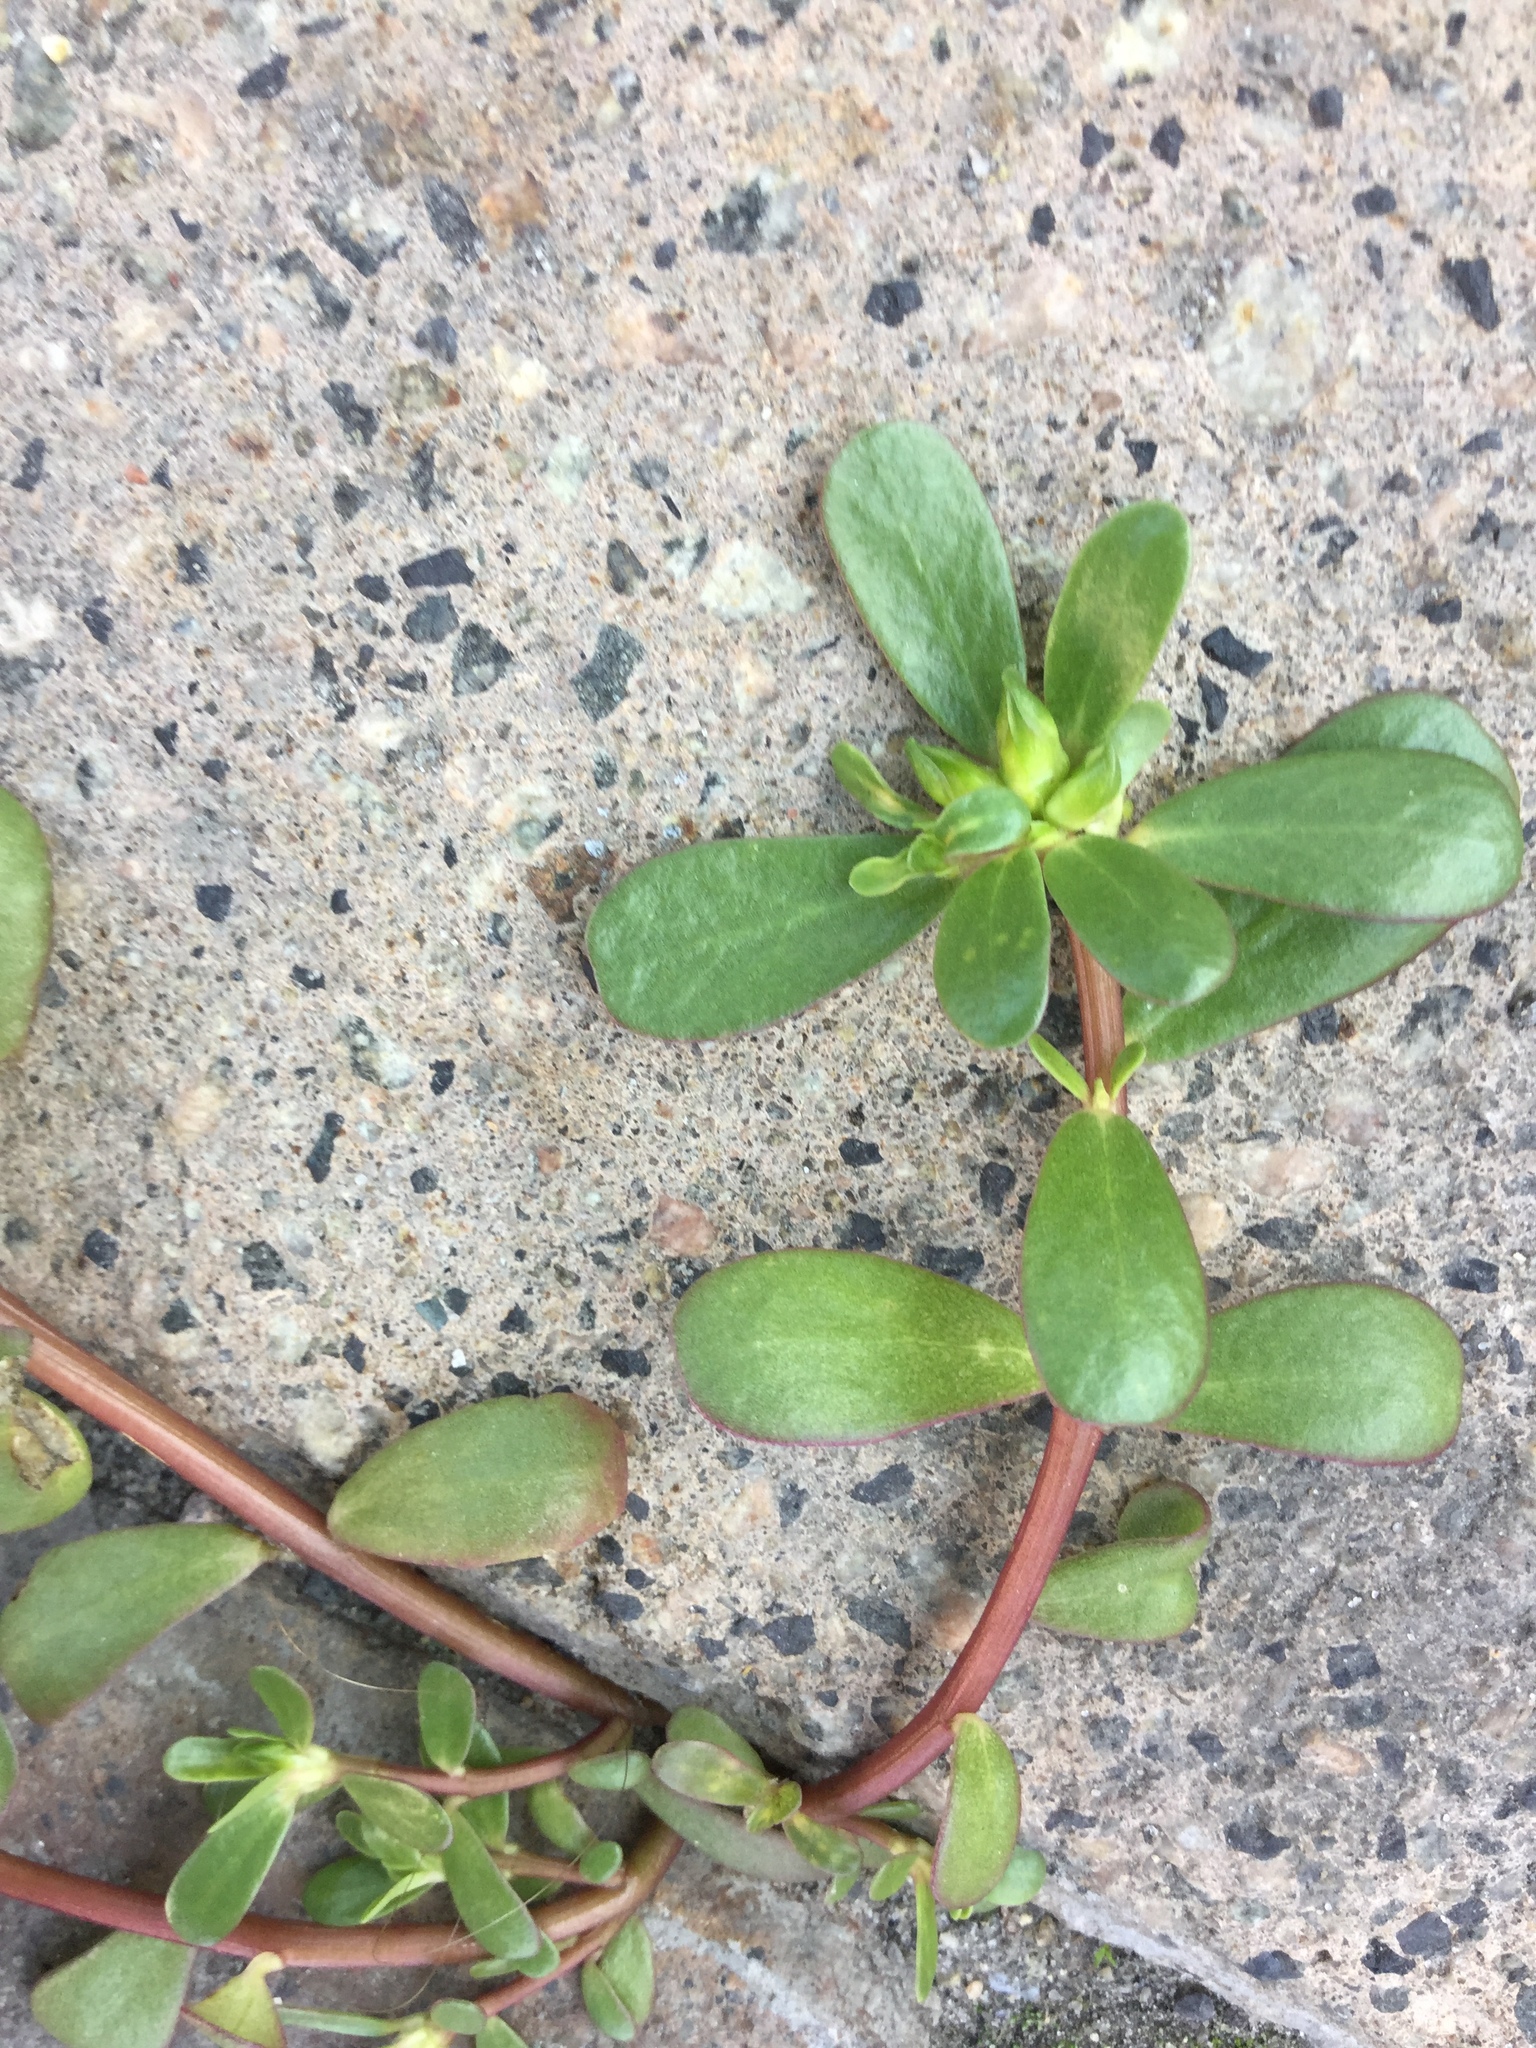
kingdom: Plantae
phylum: Tracheophyta
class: Magnoliopsida
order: Caryophyllales
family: Portulacaceae
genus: Portulaca
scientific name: Portulaca oleracea
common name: Common purslane
